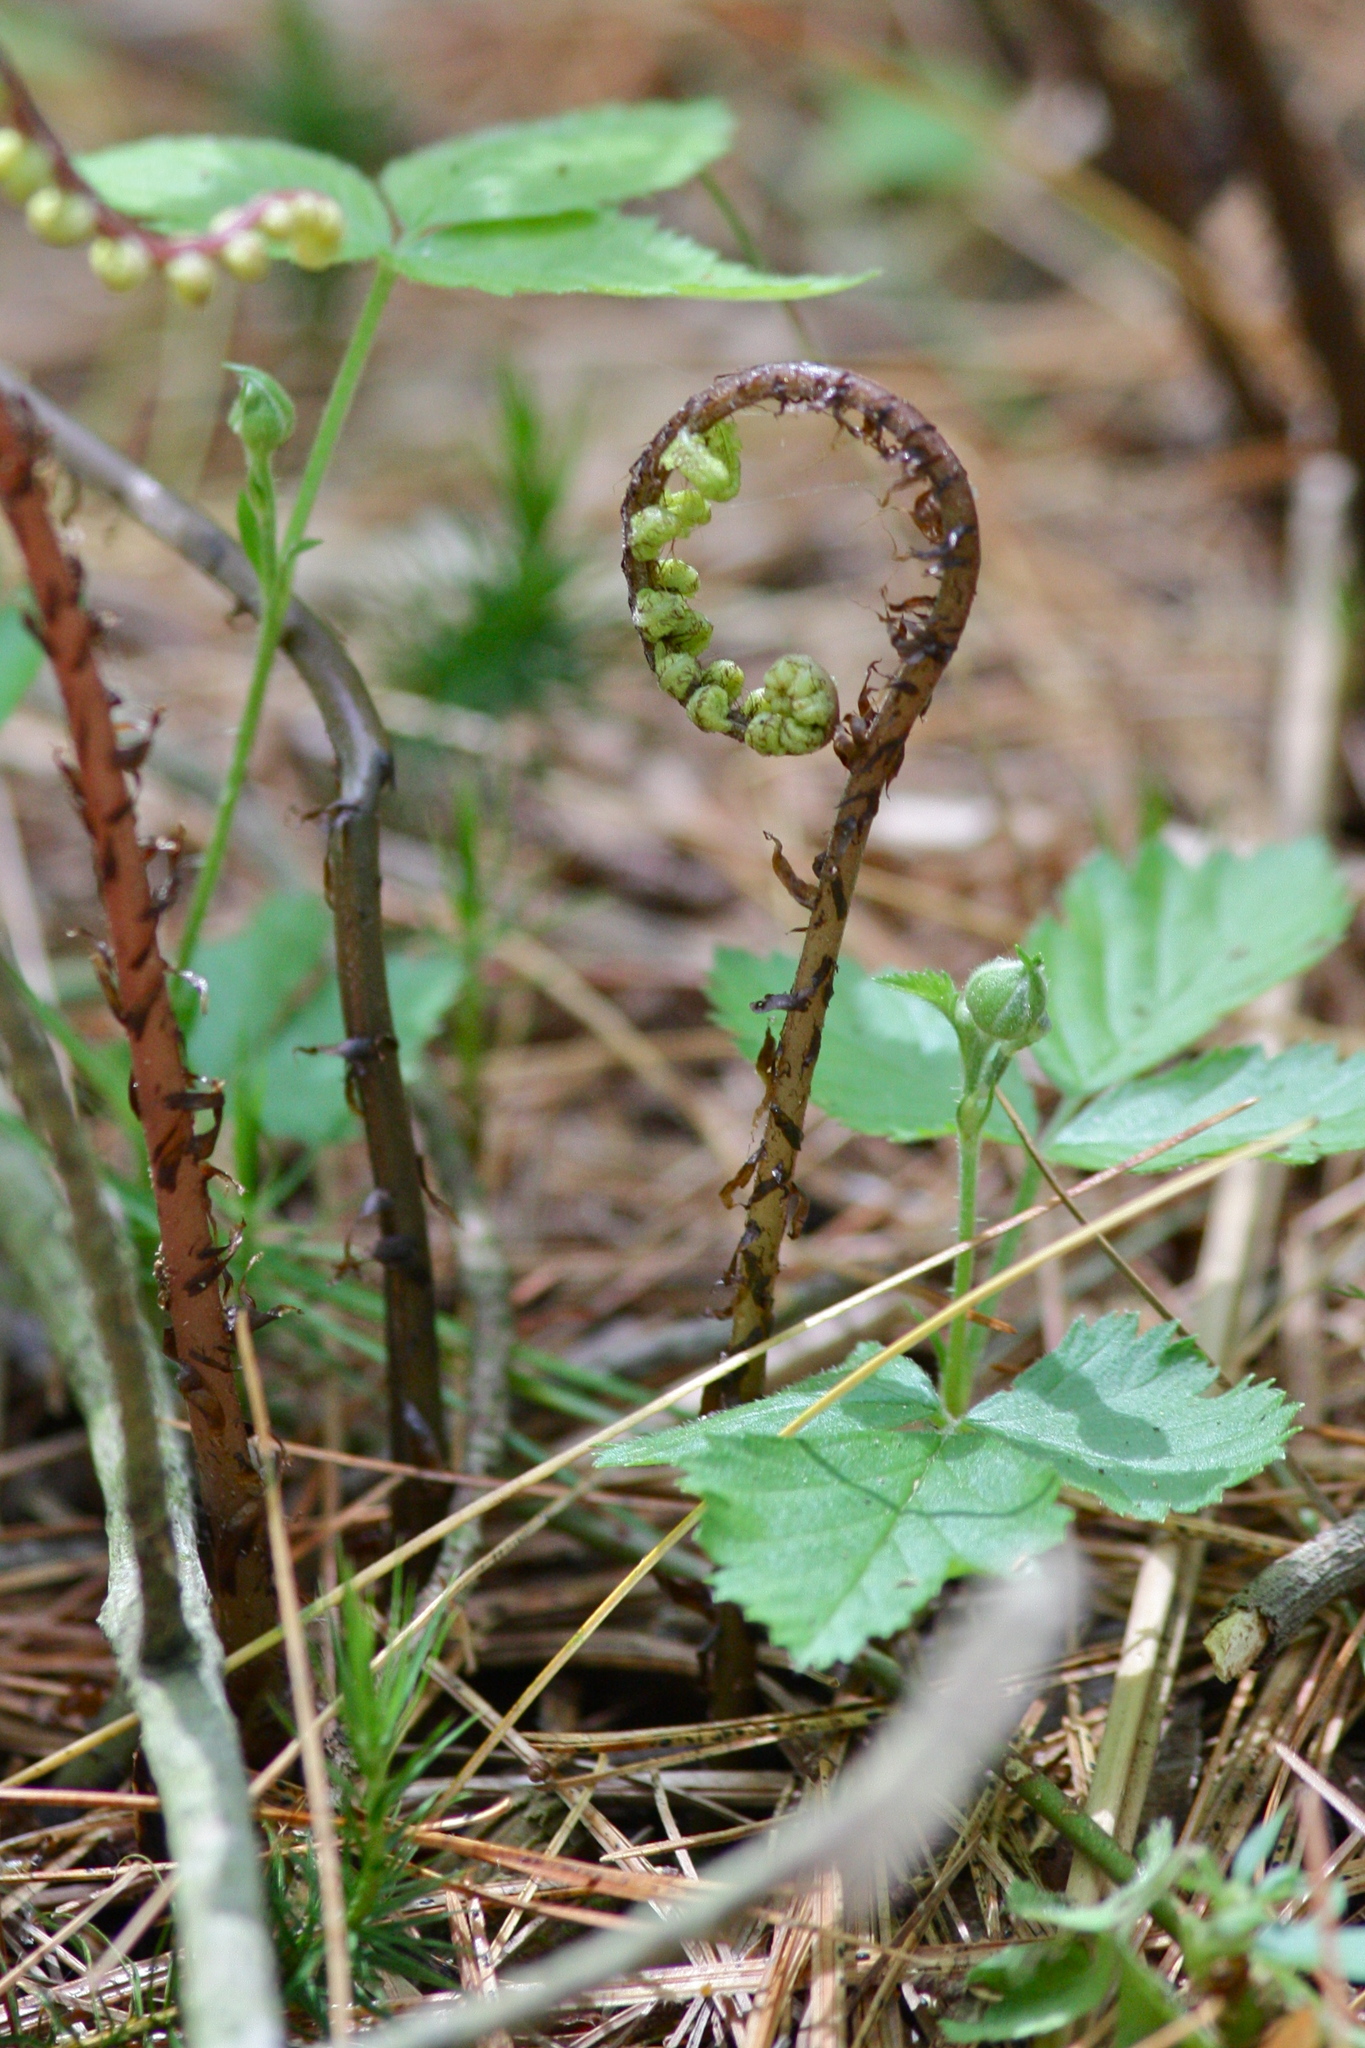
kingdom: Plantae
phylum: Tracheophyta
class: Polypodiopsida
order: Polypodiales
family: Athyriaceae
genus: Athyrium
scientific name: Athyrium angustum
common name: Northern lady fern
